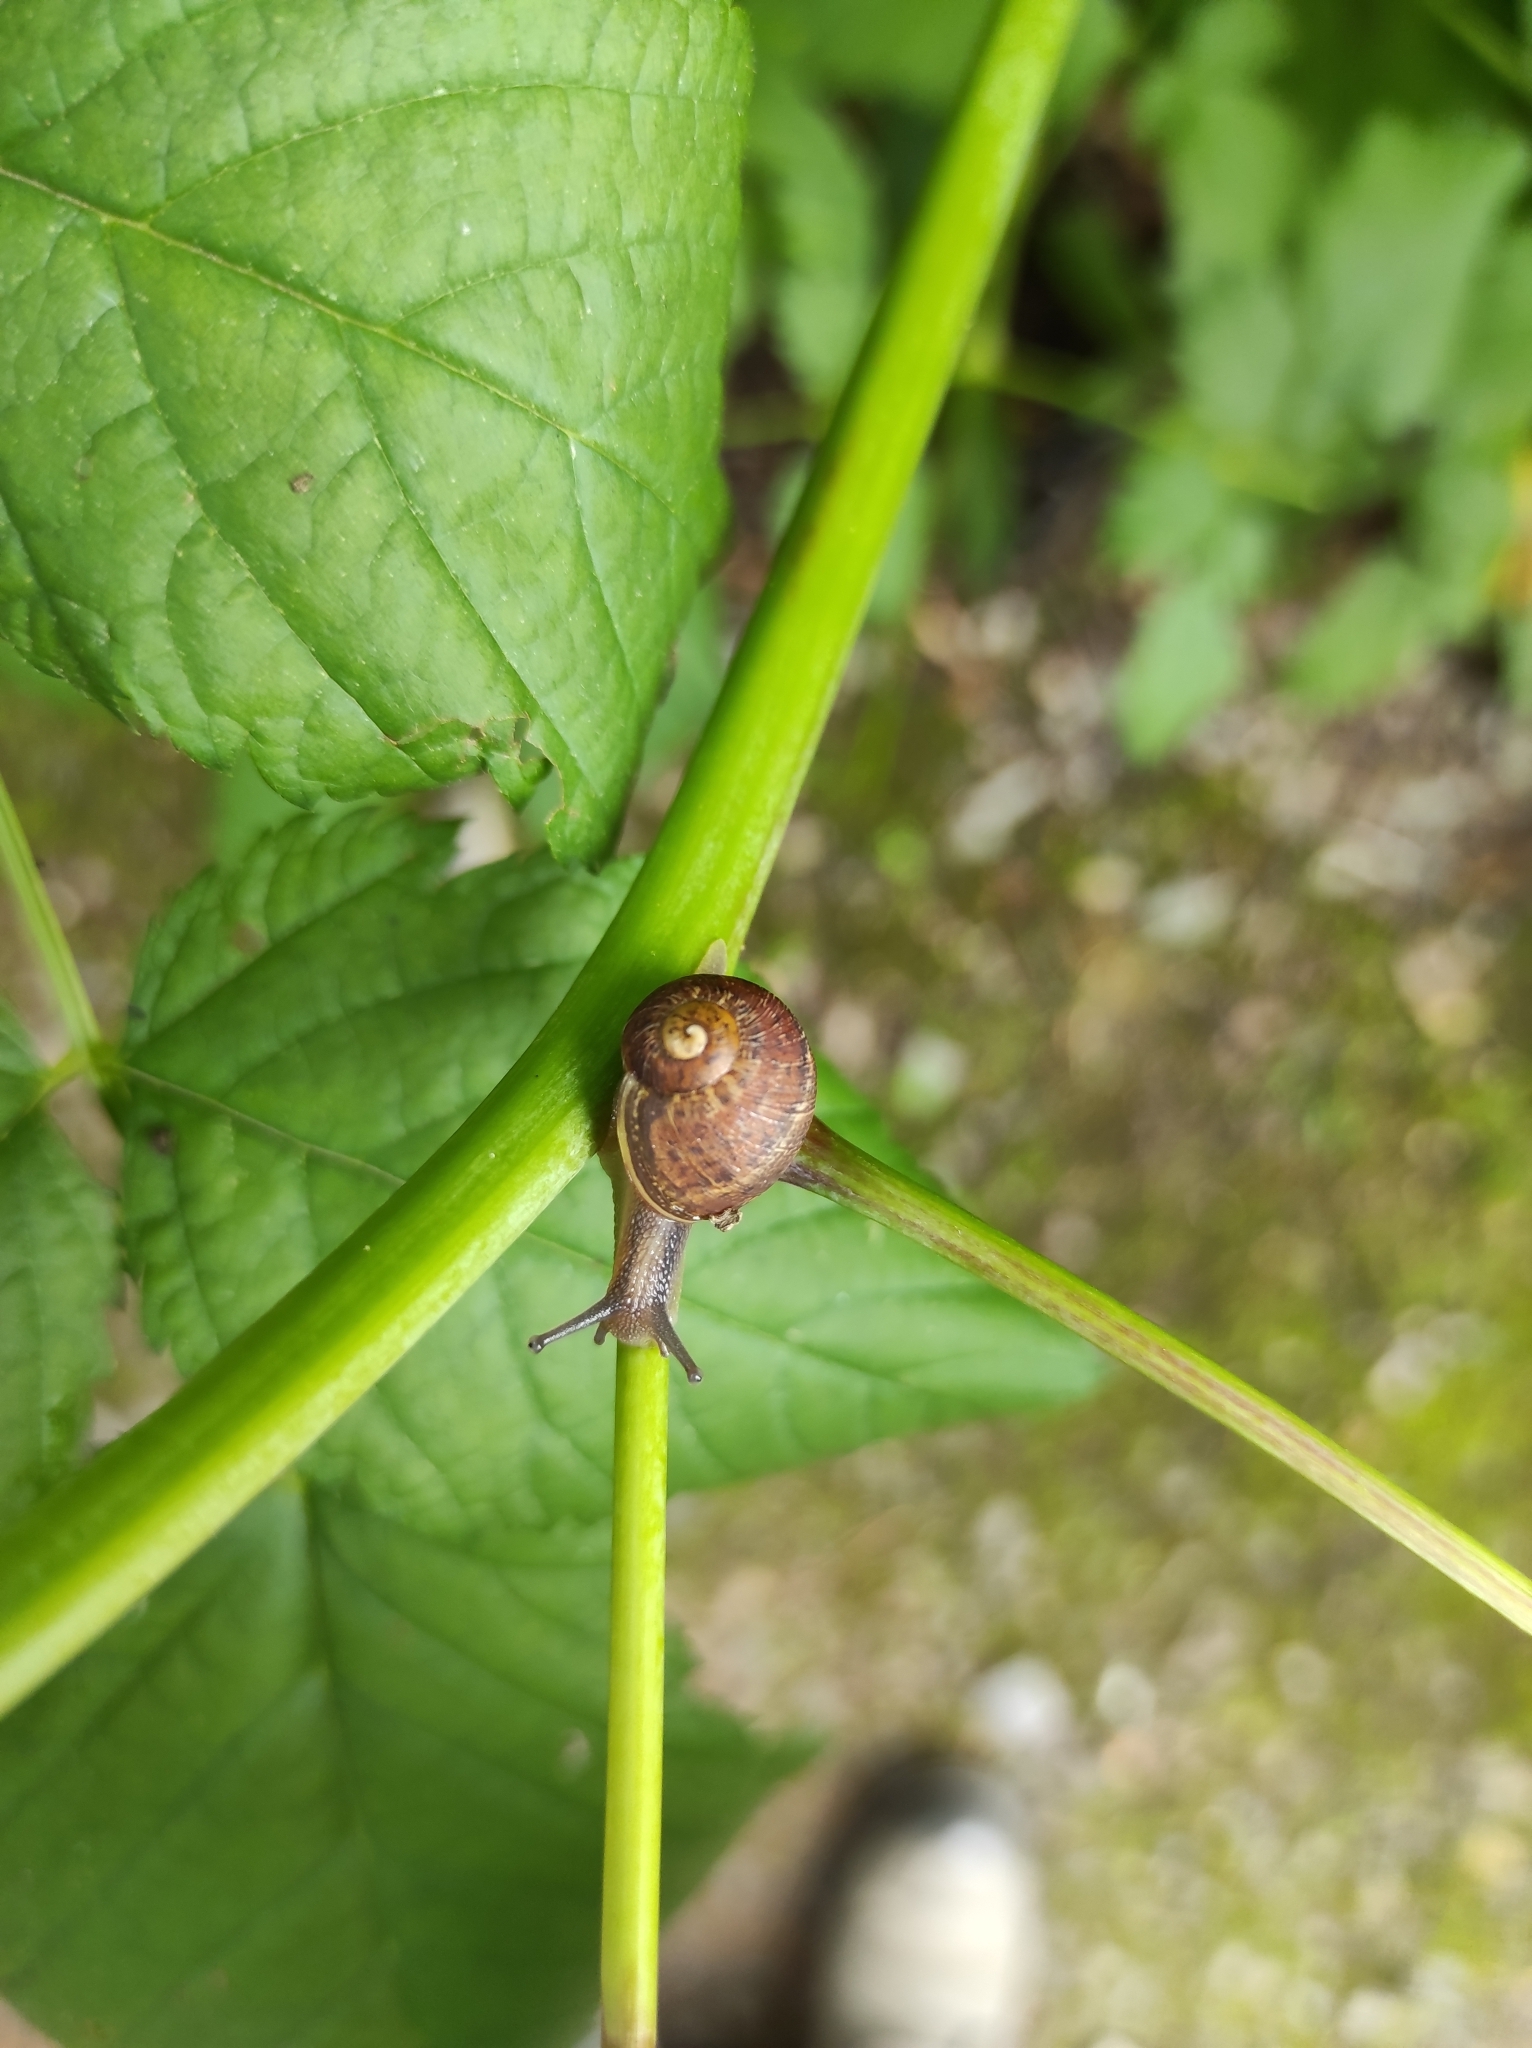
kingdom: Animalia
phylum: Mollusca
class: Gastropoda
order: Stylommatophora
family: Helicidae
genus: Cornu
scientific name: Cornu aspersum
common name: Brown garden snail
